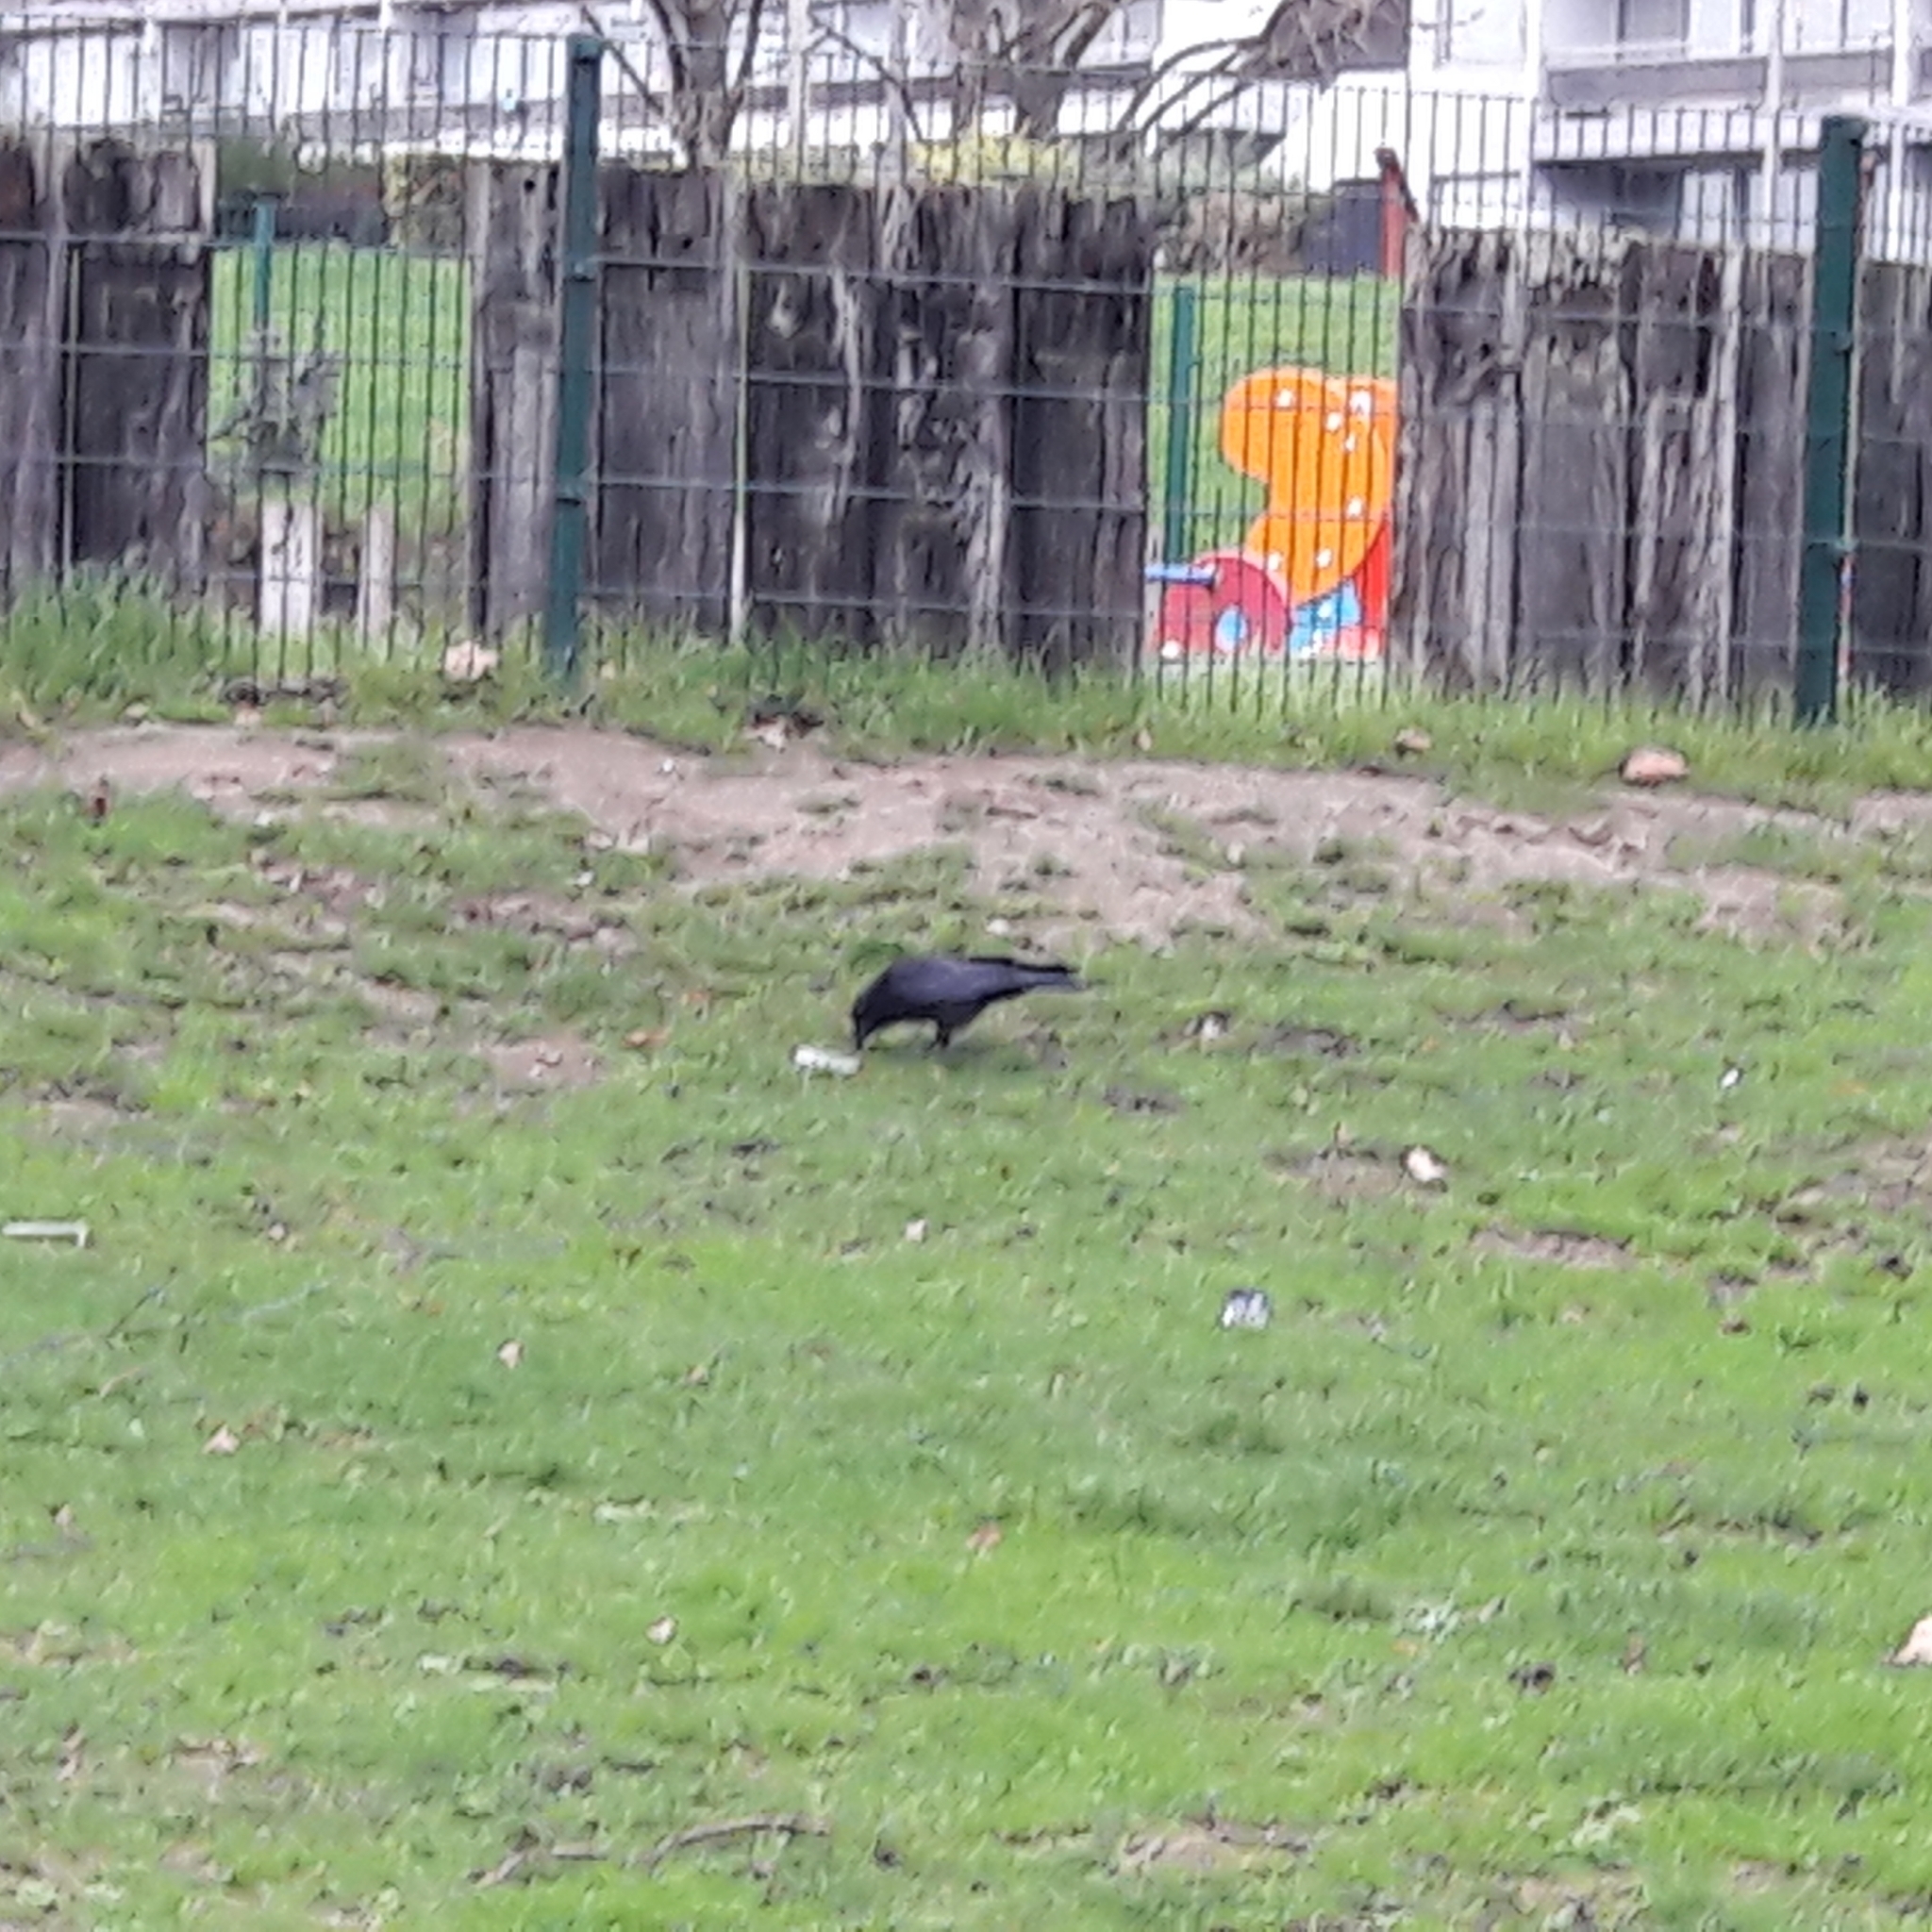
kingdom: Animalia
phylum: Chordata
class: Aves
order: Passeriformes
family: Corvidae
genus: Corvus
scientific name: Corvus corone
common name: Carrion crow
